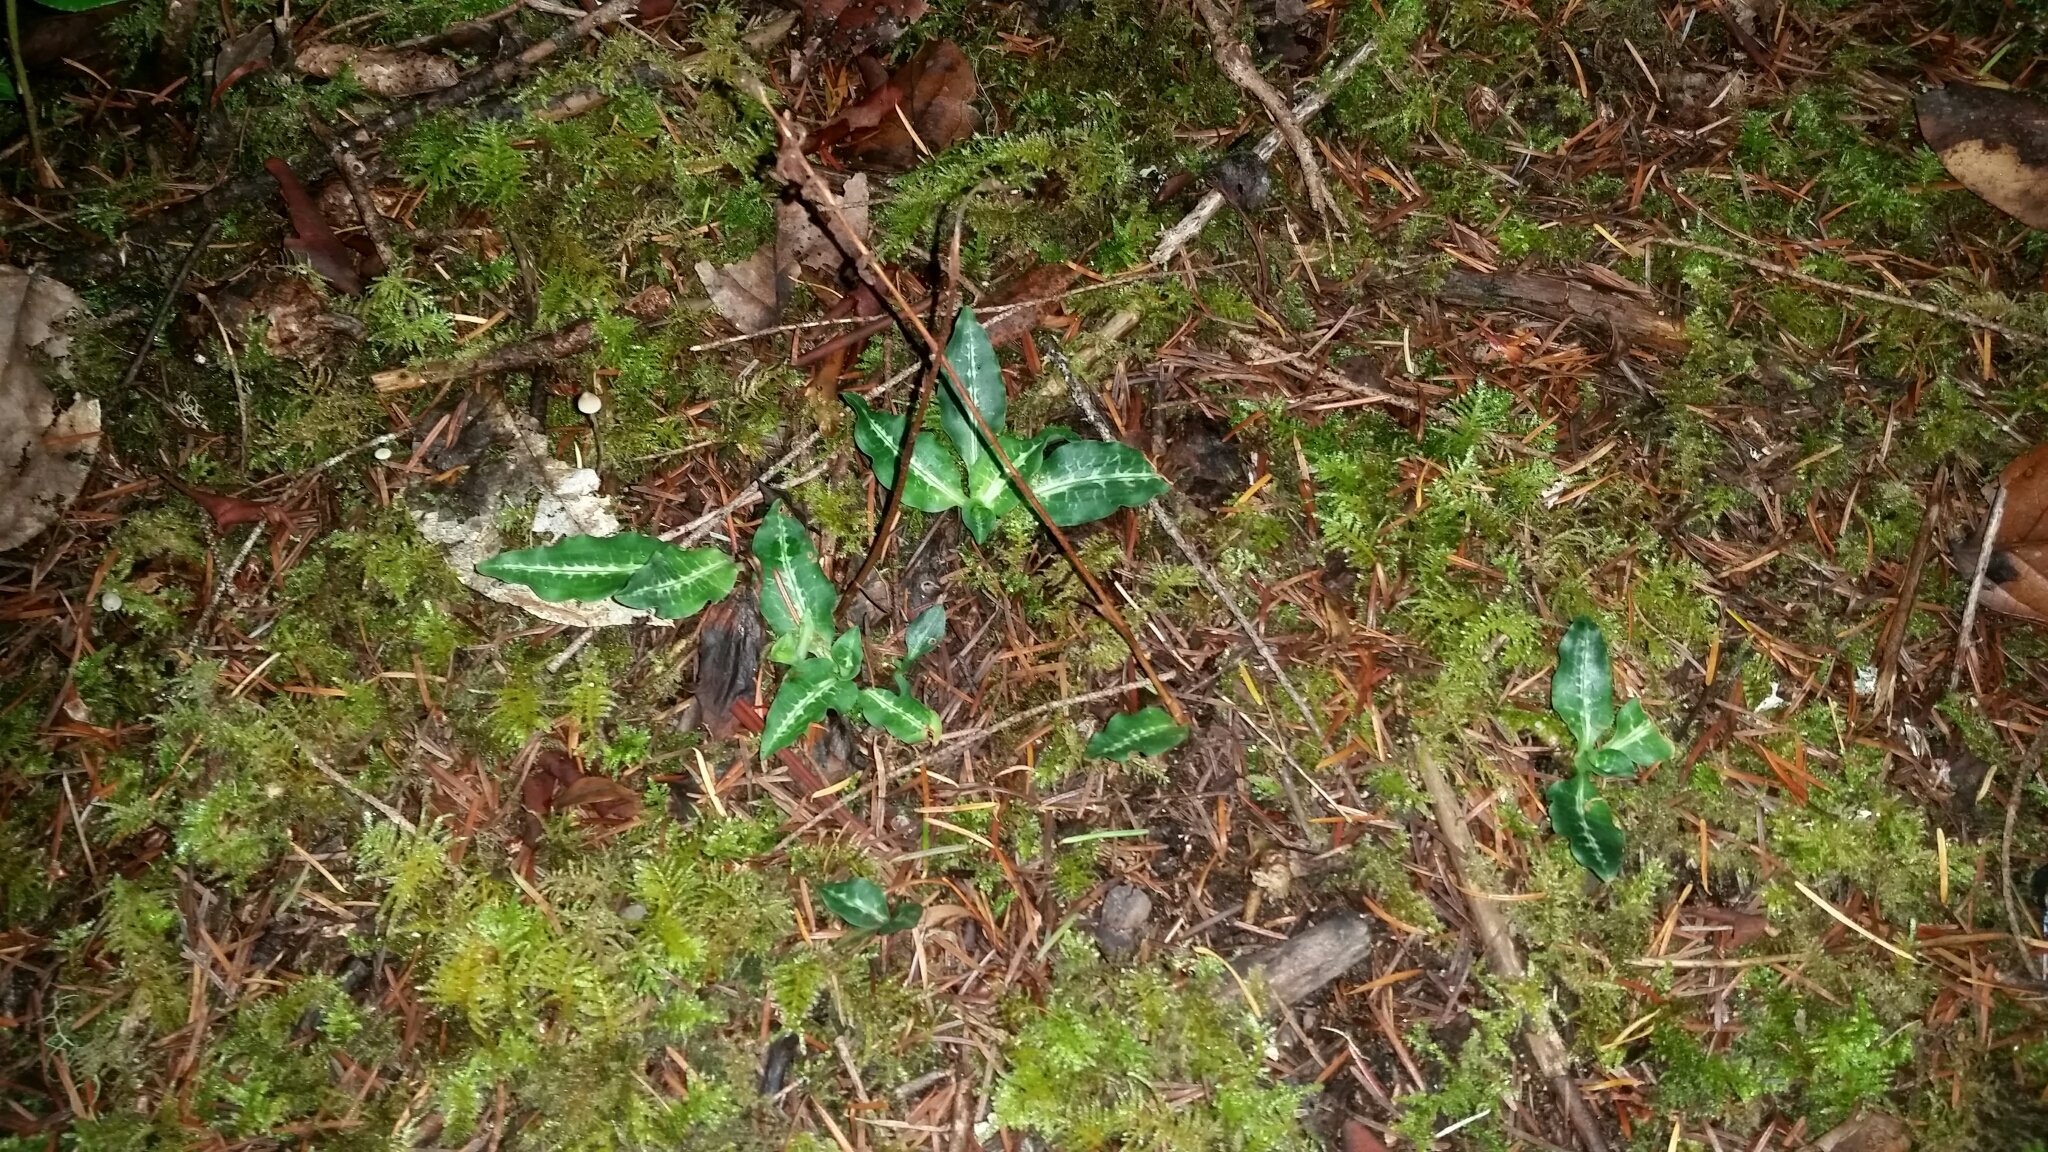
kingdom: Plantae
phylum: Tracheophyta
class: Liliopsida
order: Asparagales
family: Orchidaceae
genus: Goodyera
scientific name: Goodyera oblongifolia
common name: Giant rattlesnake-plantain
